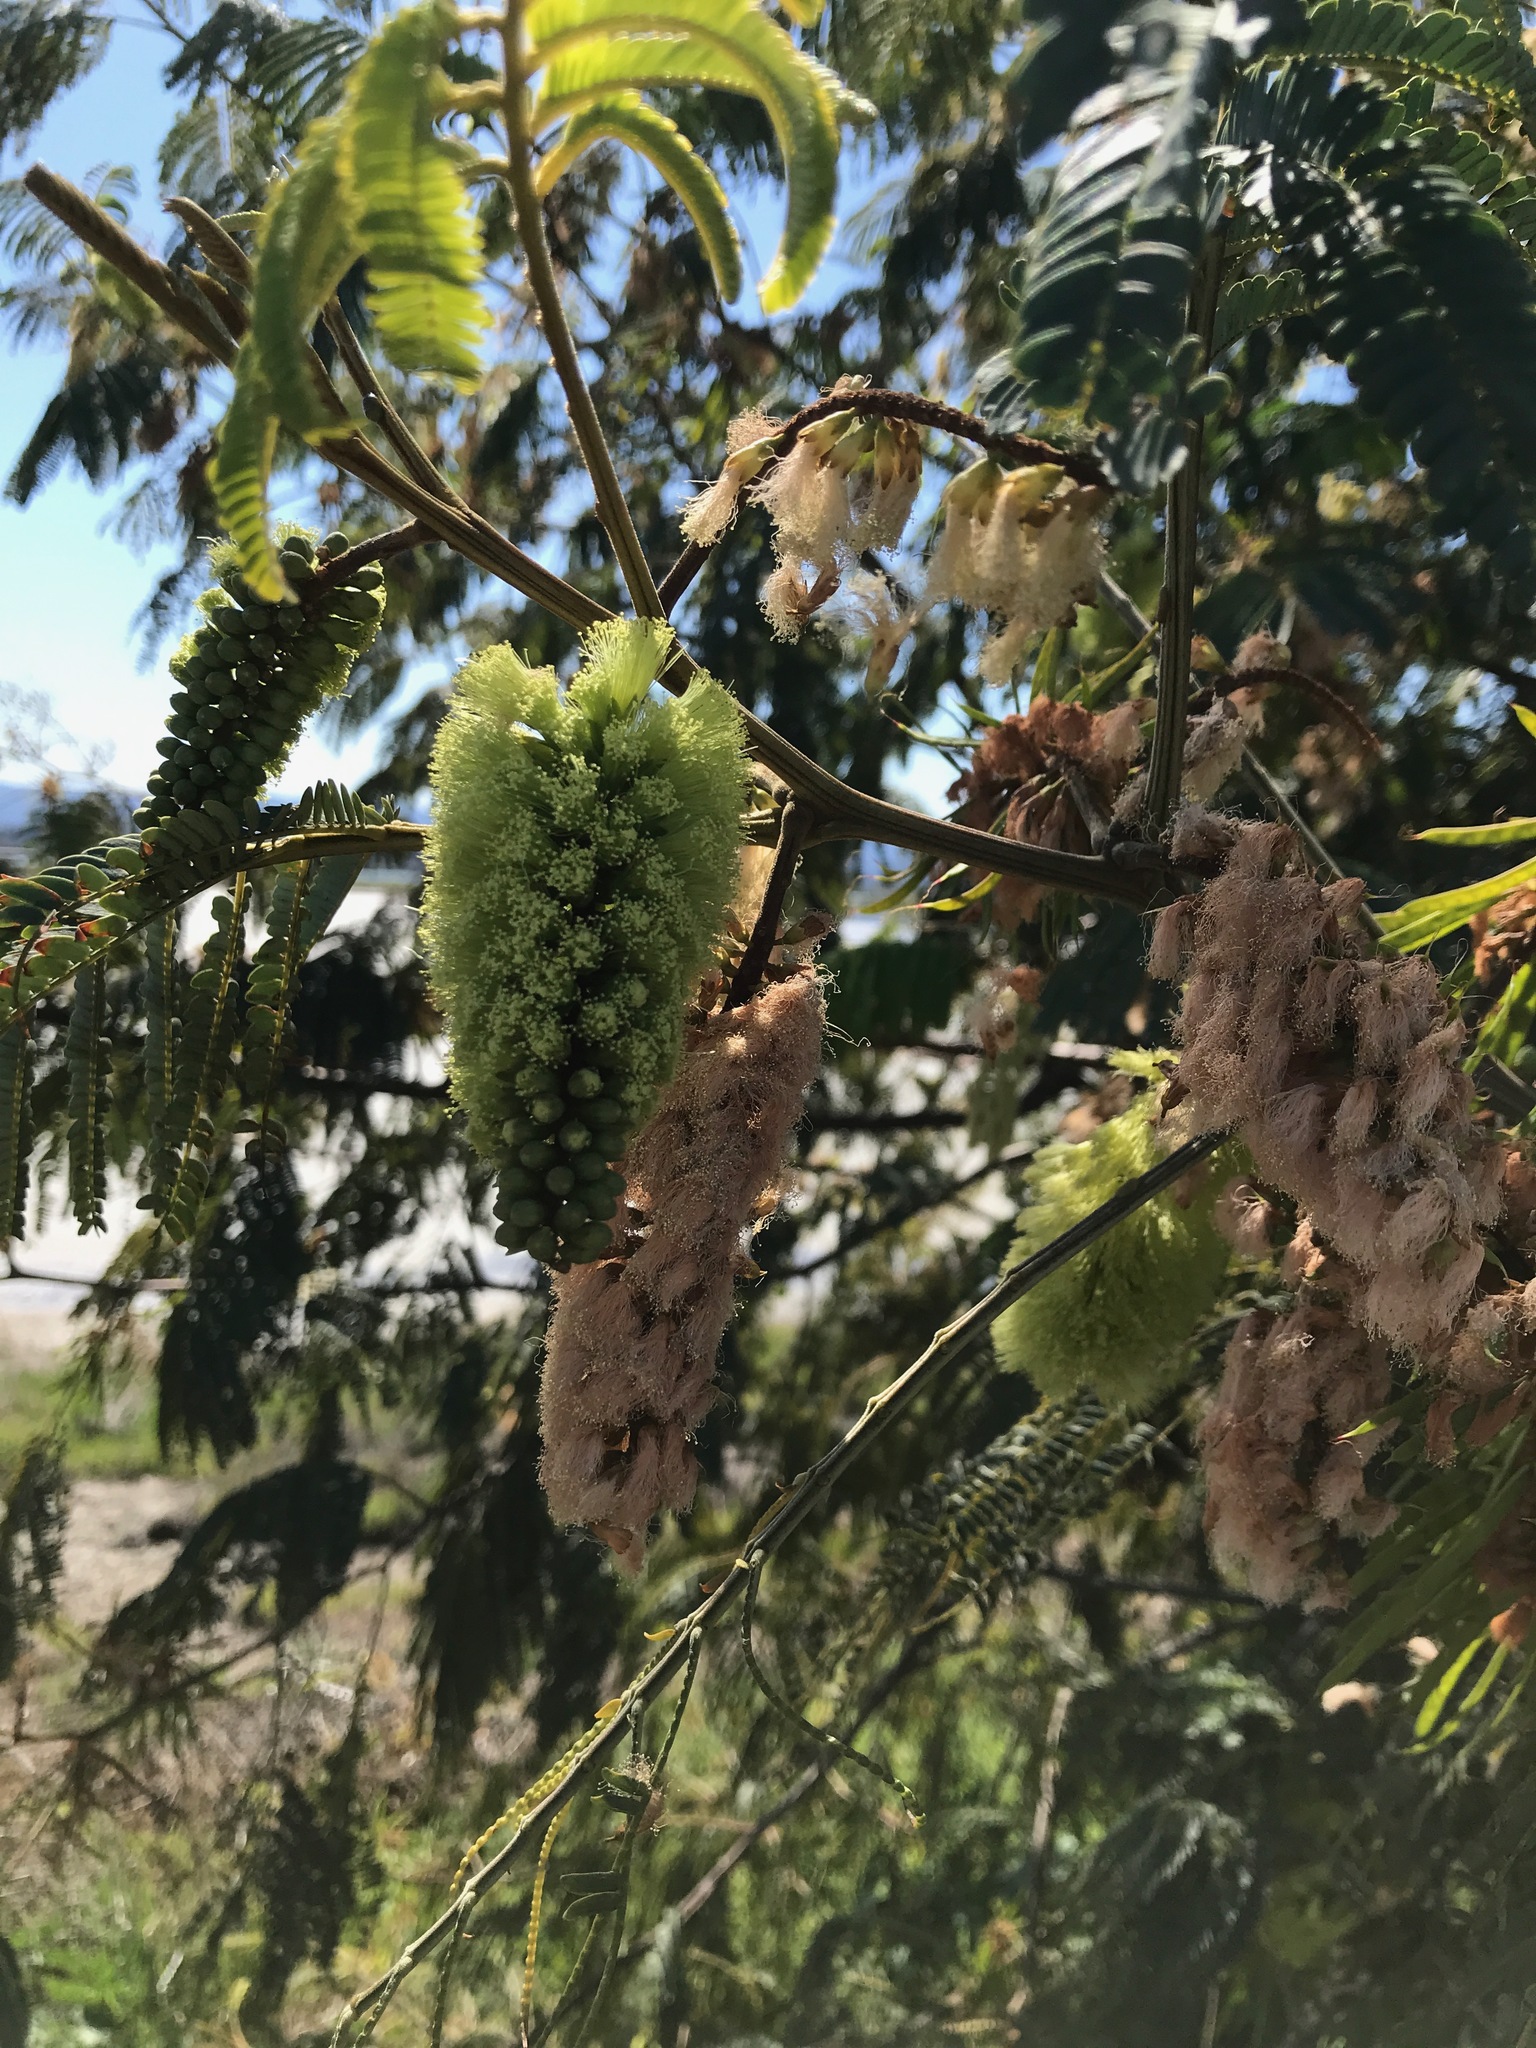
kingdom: Plantae
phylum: Tracheophyta
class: Magnoliopsida
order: Fabales
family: Fabaceae
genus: Paraserianthes
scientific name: Paraserianthes lophantha
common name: Plume albizia
